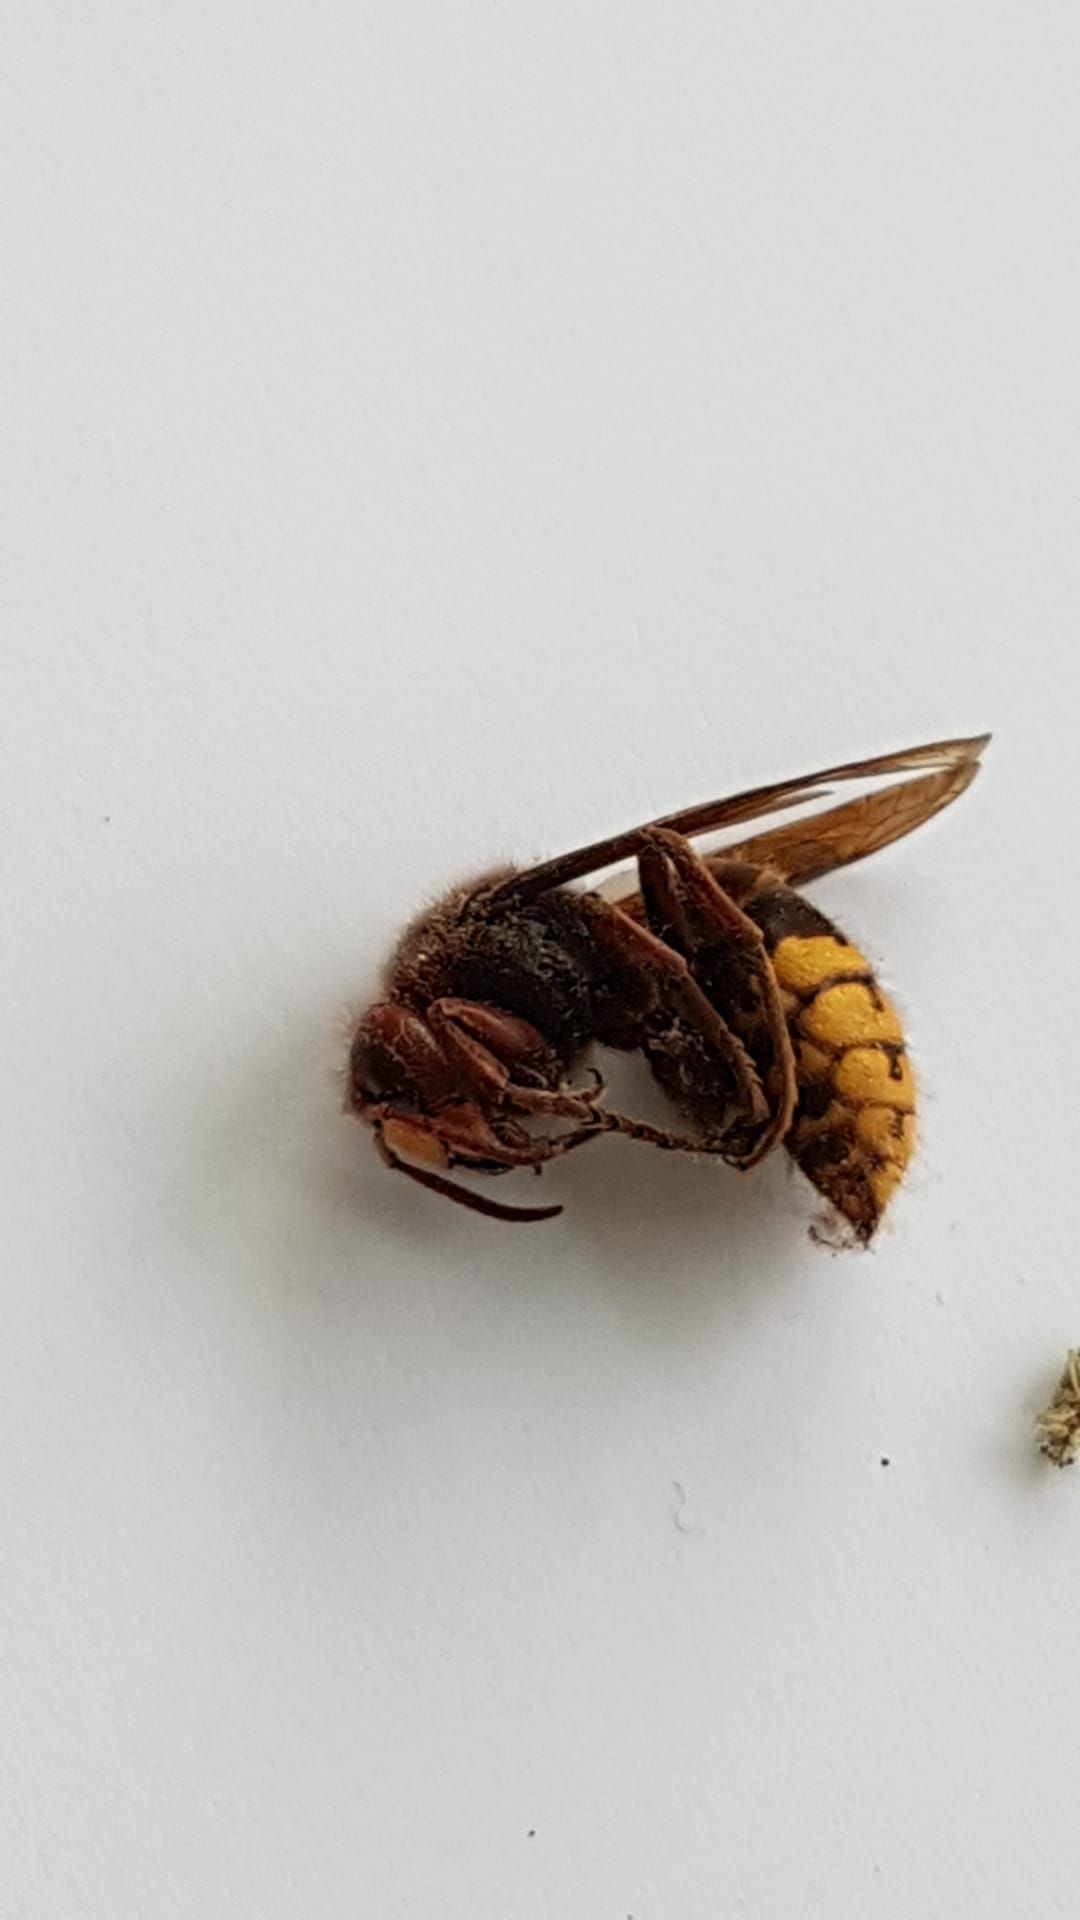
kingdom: Animalia
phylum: Arthropoda
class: Insecta
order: Hymenoptera
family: Vespidae
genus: Vespa
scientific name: Vespa crabro
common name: Hornet
